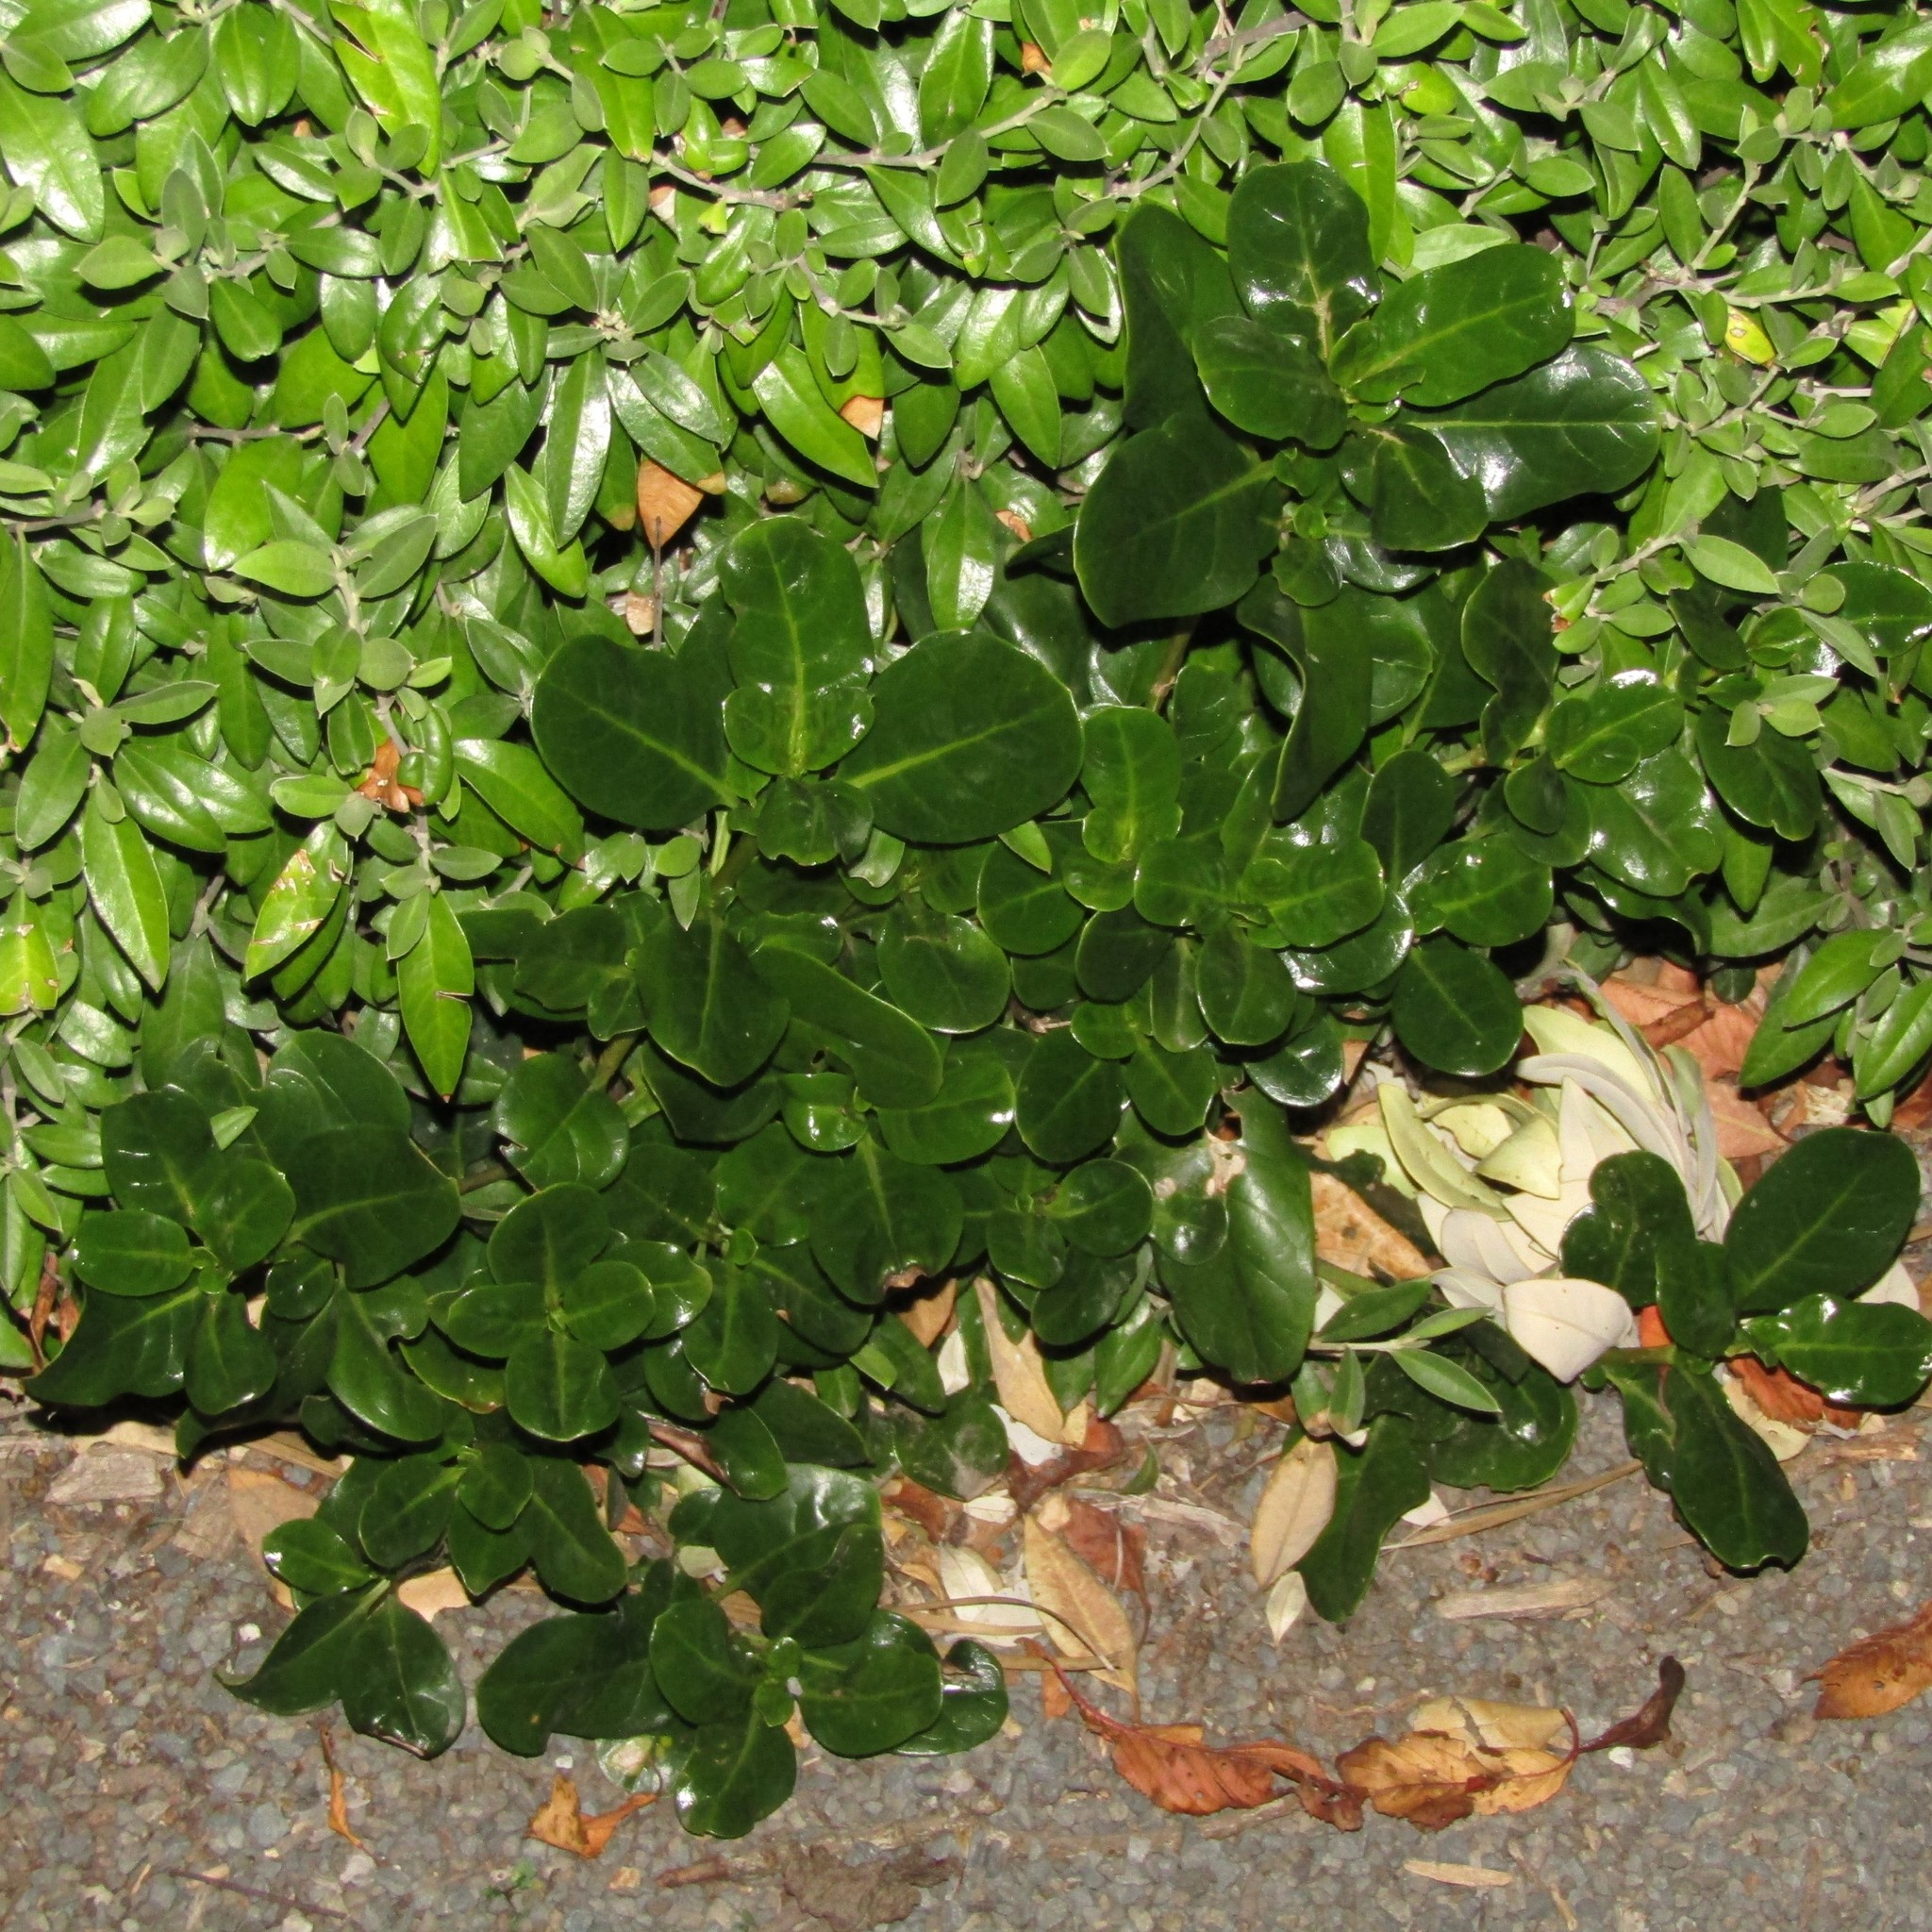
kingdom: Plantae
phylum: Tracheophyta
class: Magnoliopsida
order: Gentianales
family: Rubiaceae
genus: Coprosma
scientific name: Coprosma repens
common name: Tree bedstraw
